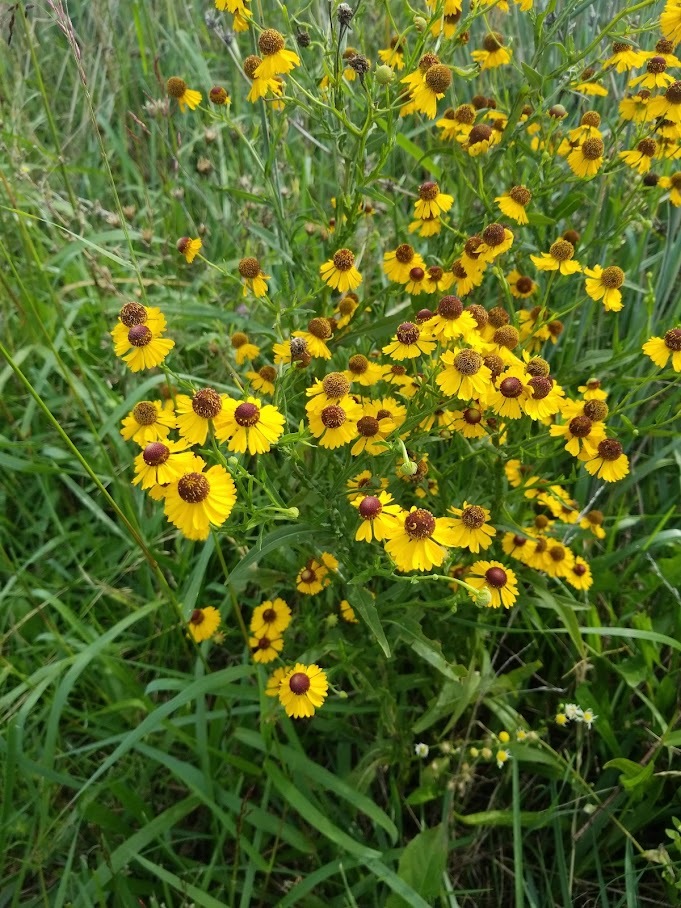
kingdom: Plantae
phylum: Tracheophyta
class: Magnoliopsida
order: Asterales
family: Asteraceae
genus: Helenium
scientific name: Helenium flexuosum
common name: Naked-flowered sneezeweed
